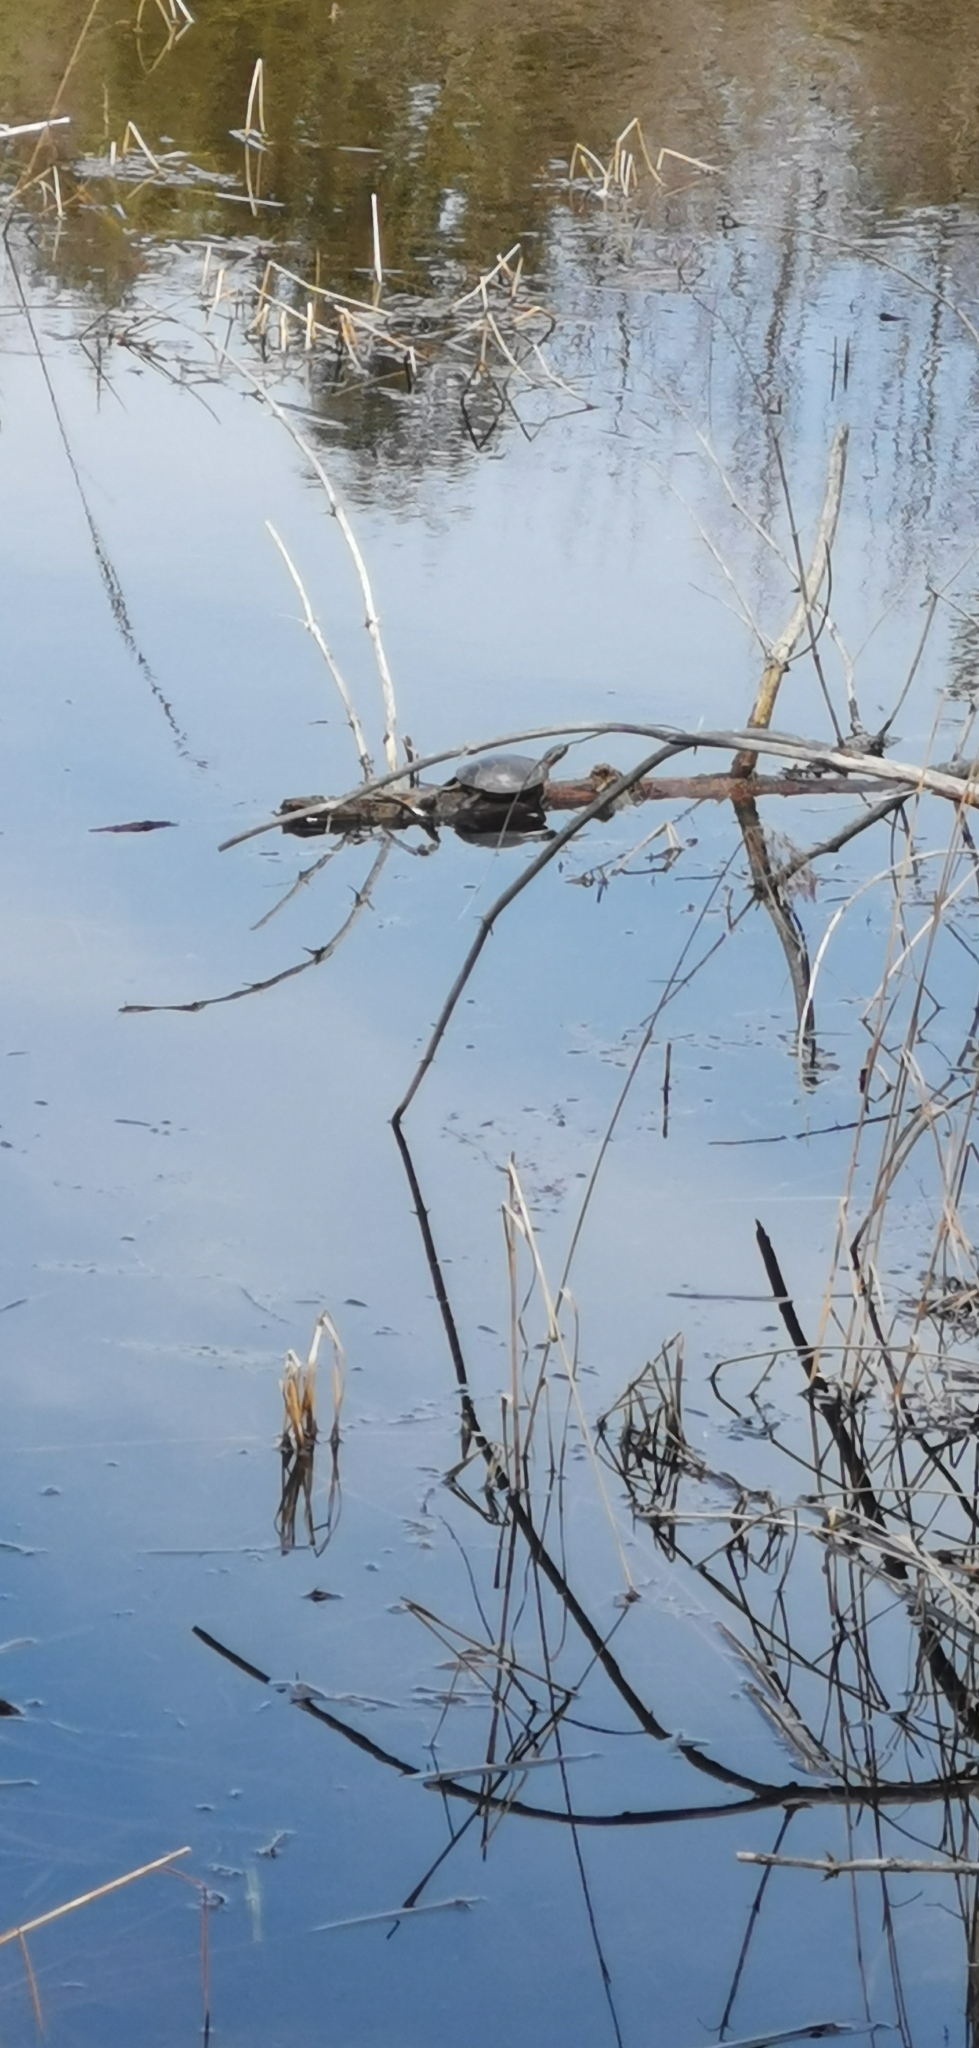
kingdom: Animalia
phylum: Chordata
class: Testudines
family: Emydidae
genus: Chrysemys
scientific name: Chrysemys picta
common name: Painted turtle
